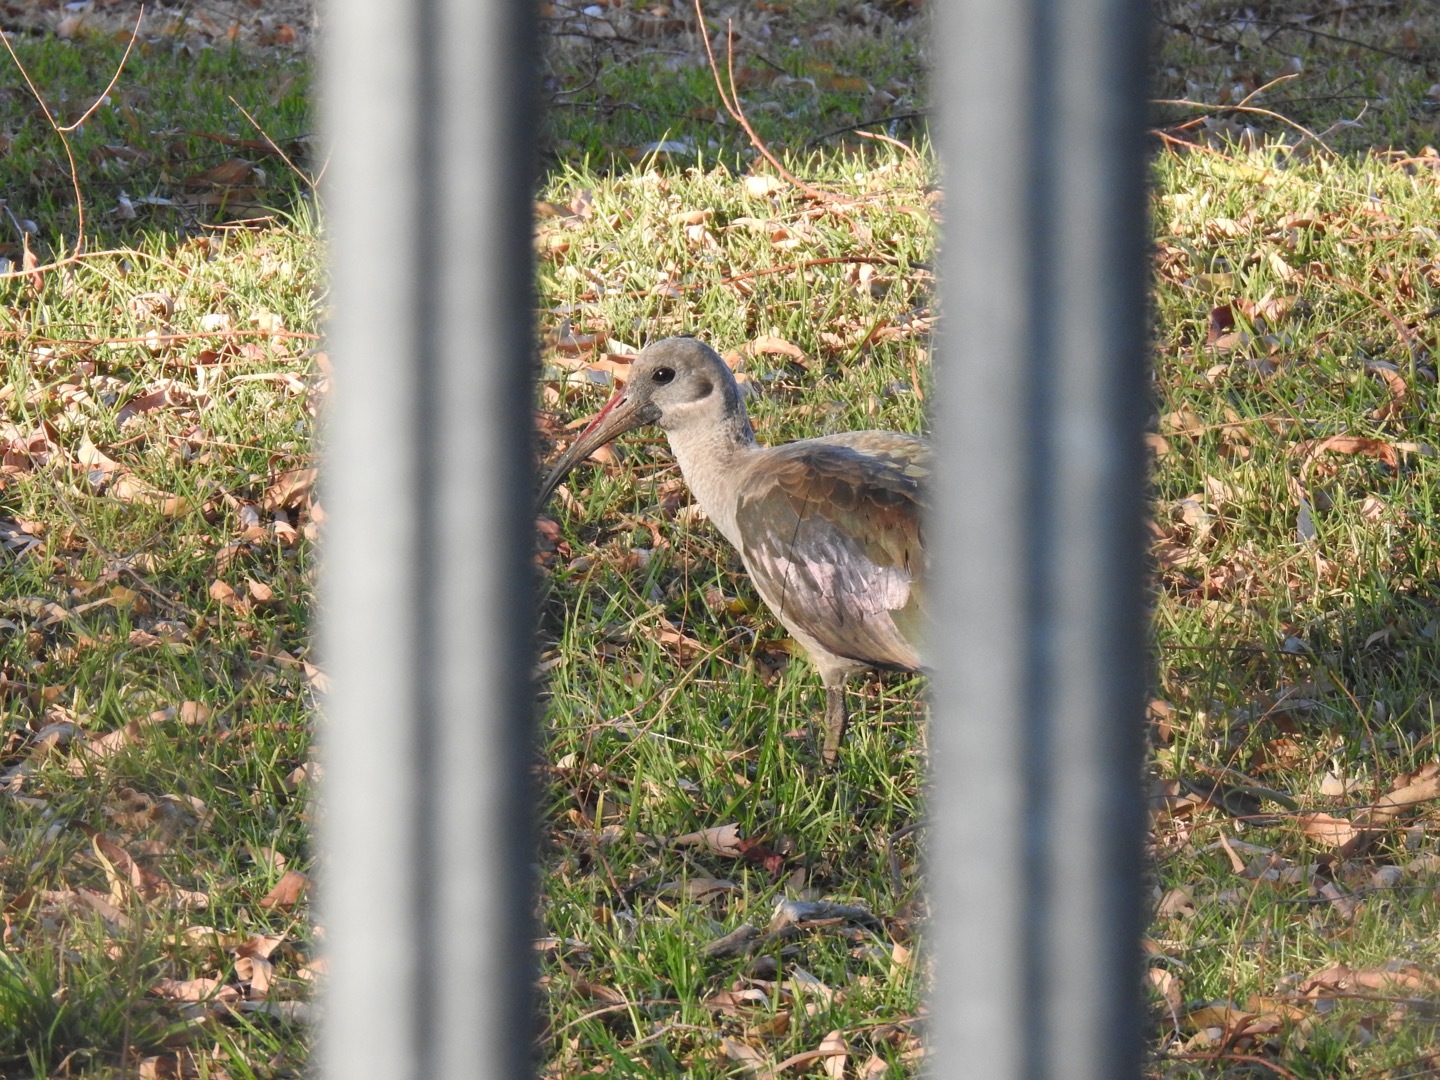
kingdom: Animalia
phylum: Chordata
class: Aves
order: Pelecaniformes
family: Threskiornithidae
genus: Bostrychia
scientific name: Bostrychia hagedash
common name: Hadada ibis
